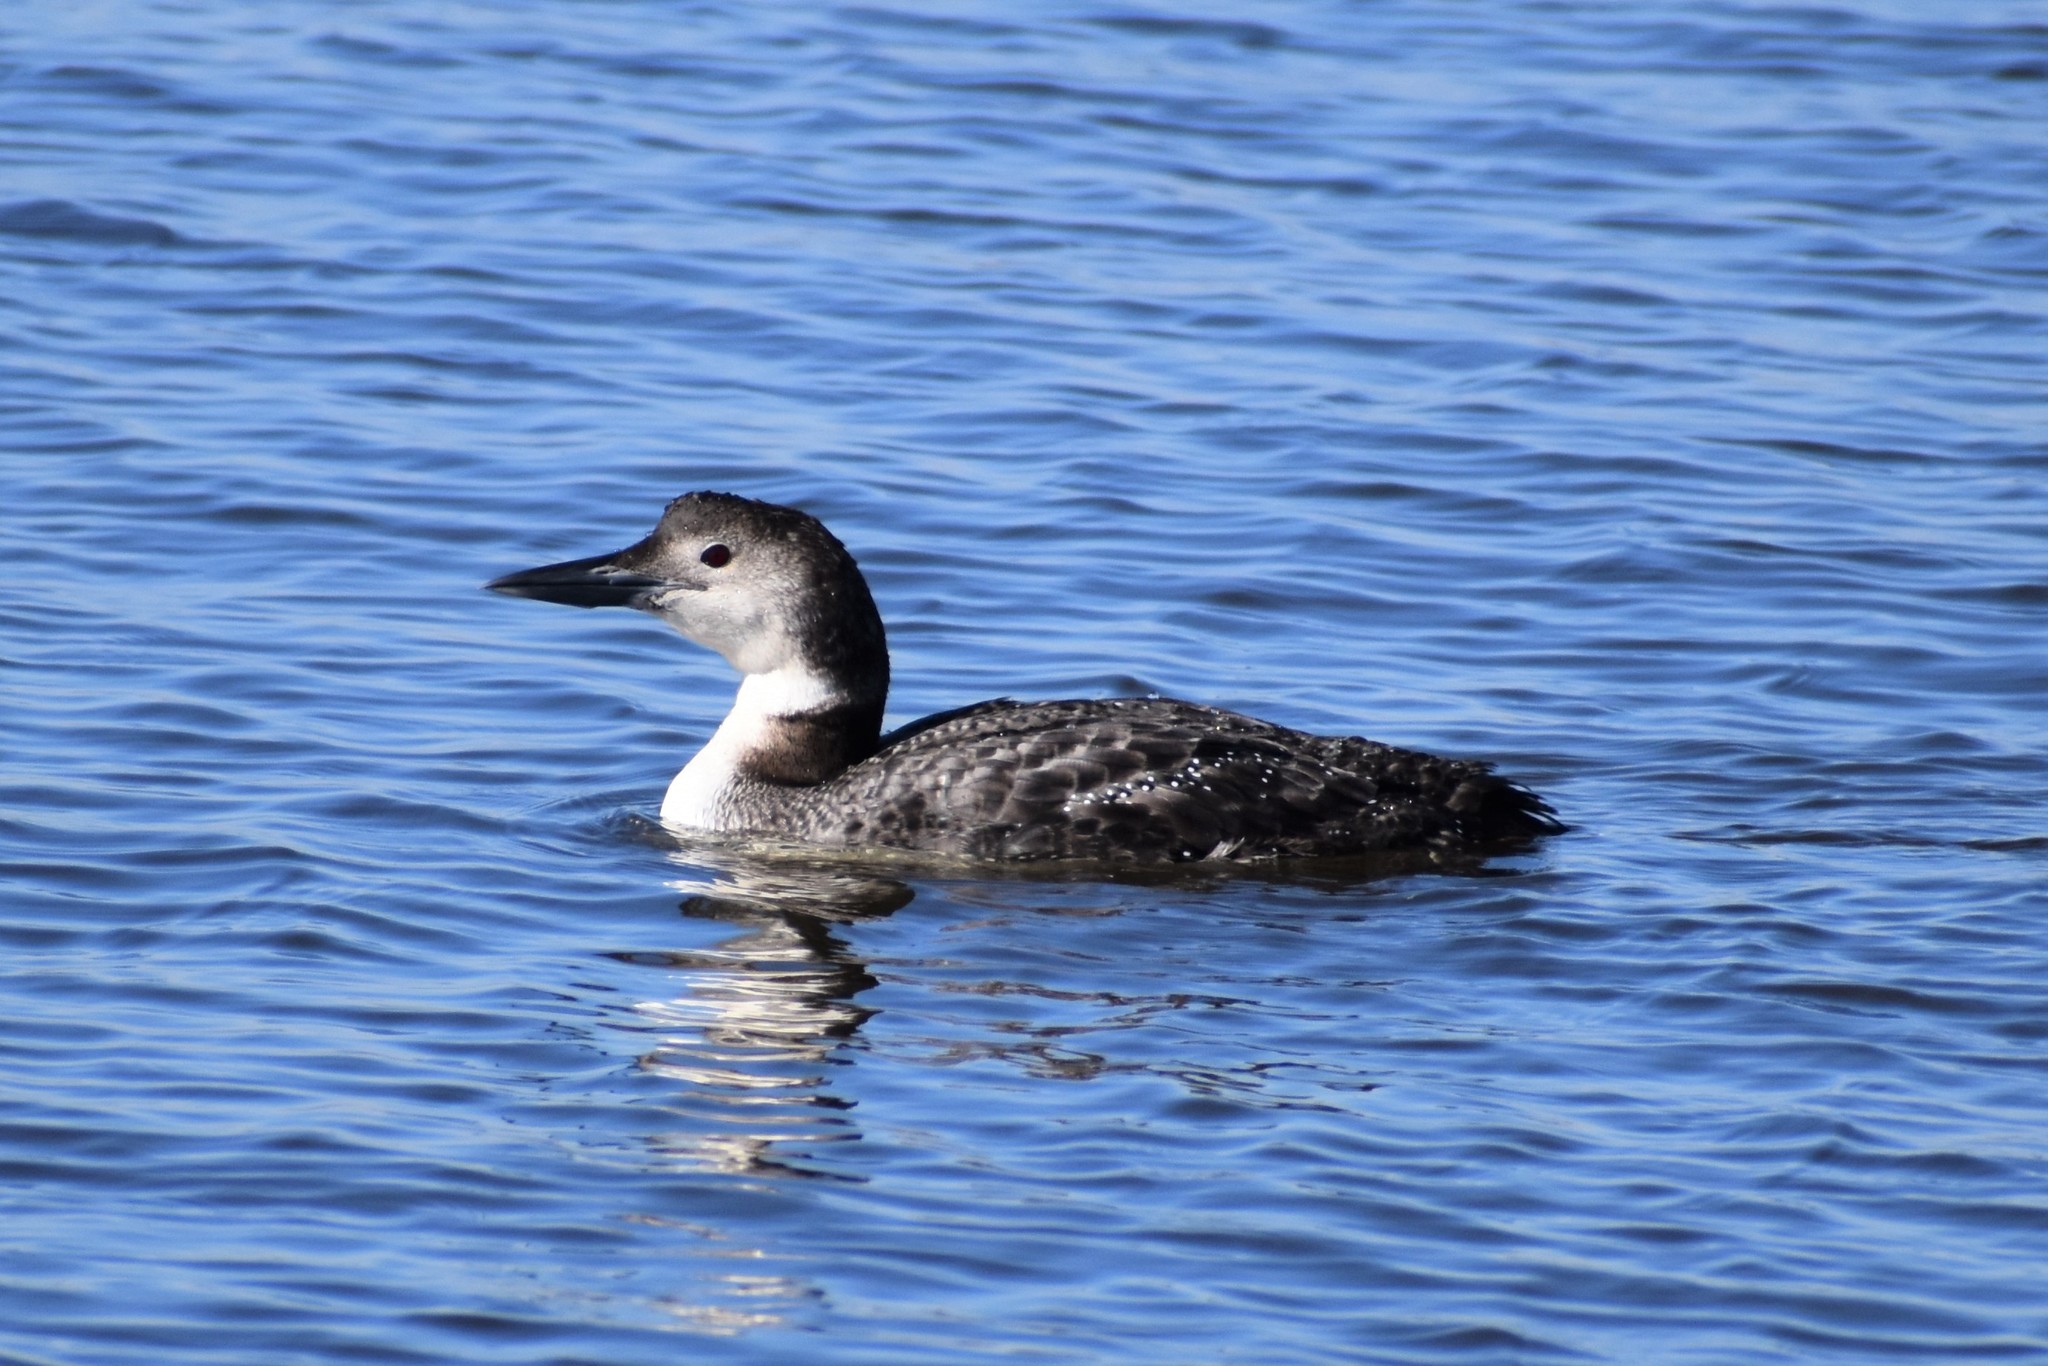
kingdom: Animalia
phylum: Chordata
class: Aves
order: Gaviiformes
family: Gaviidae
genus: Gavia
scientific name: Gavia immer
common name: Common loon
